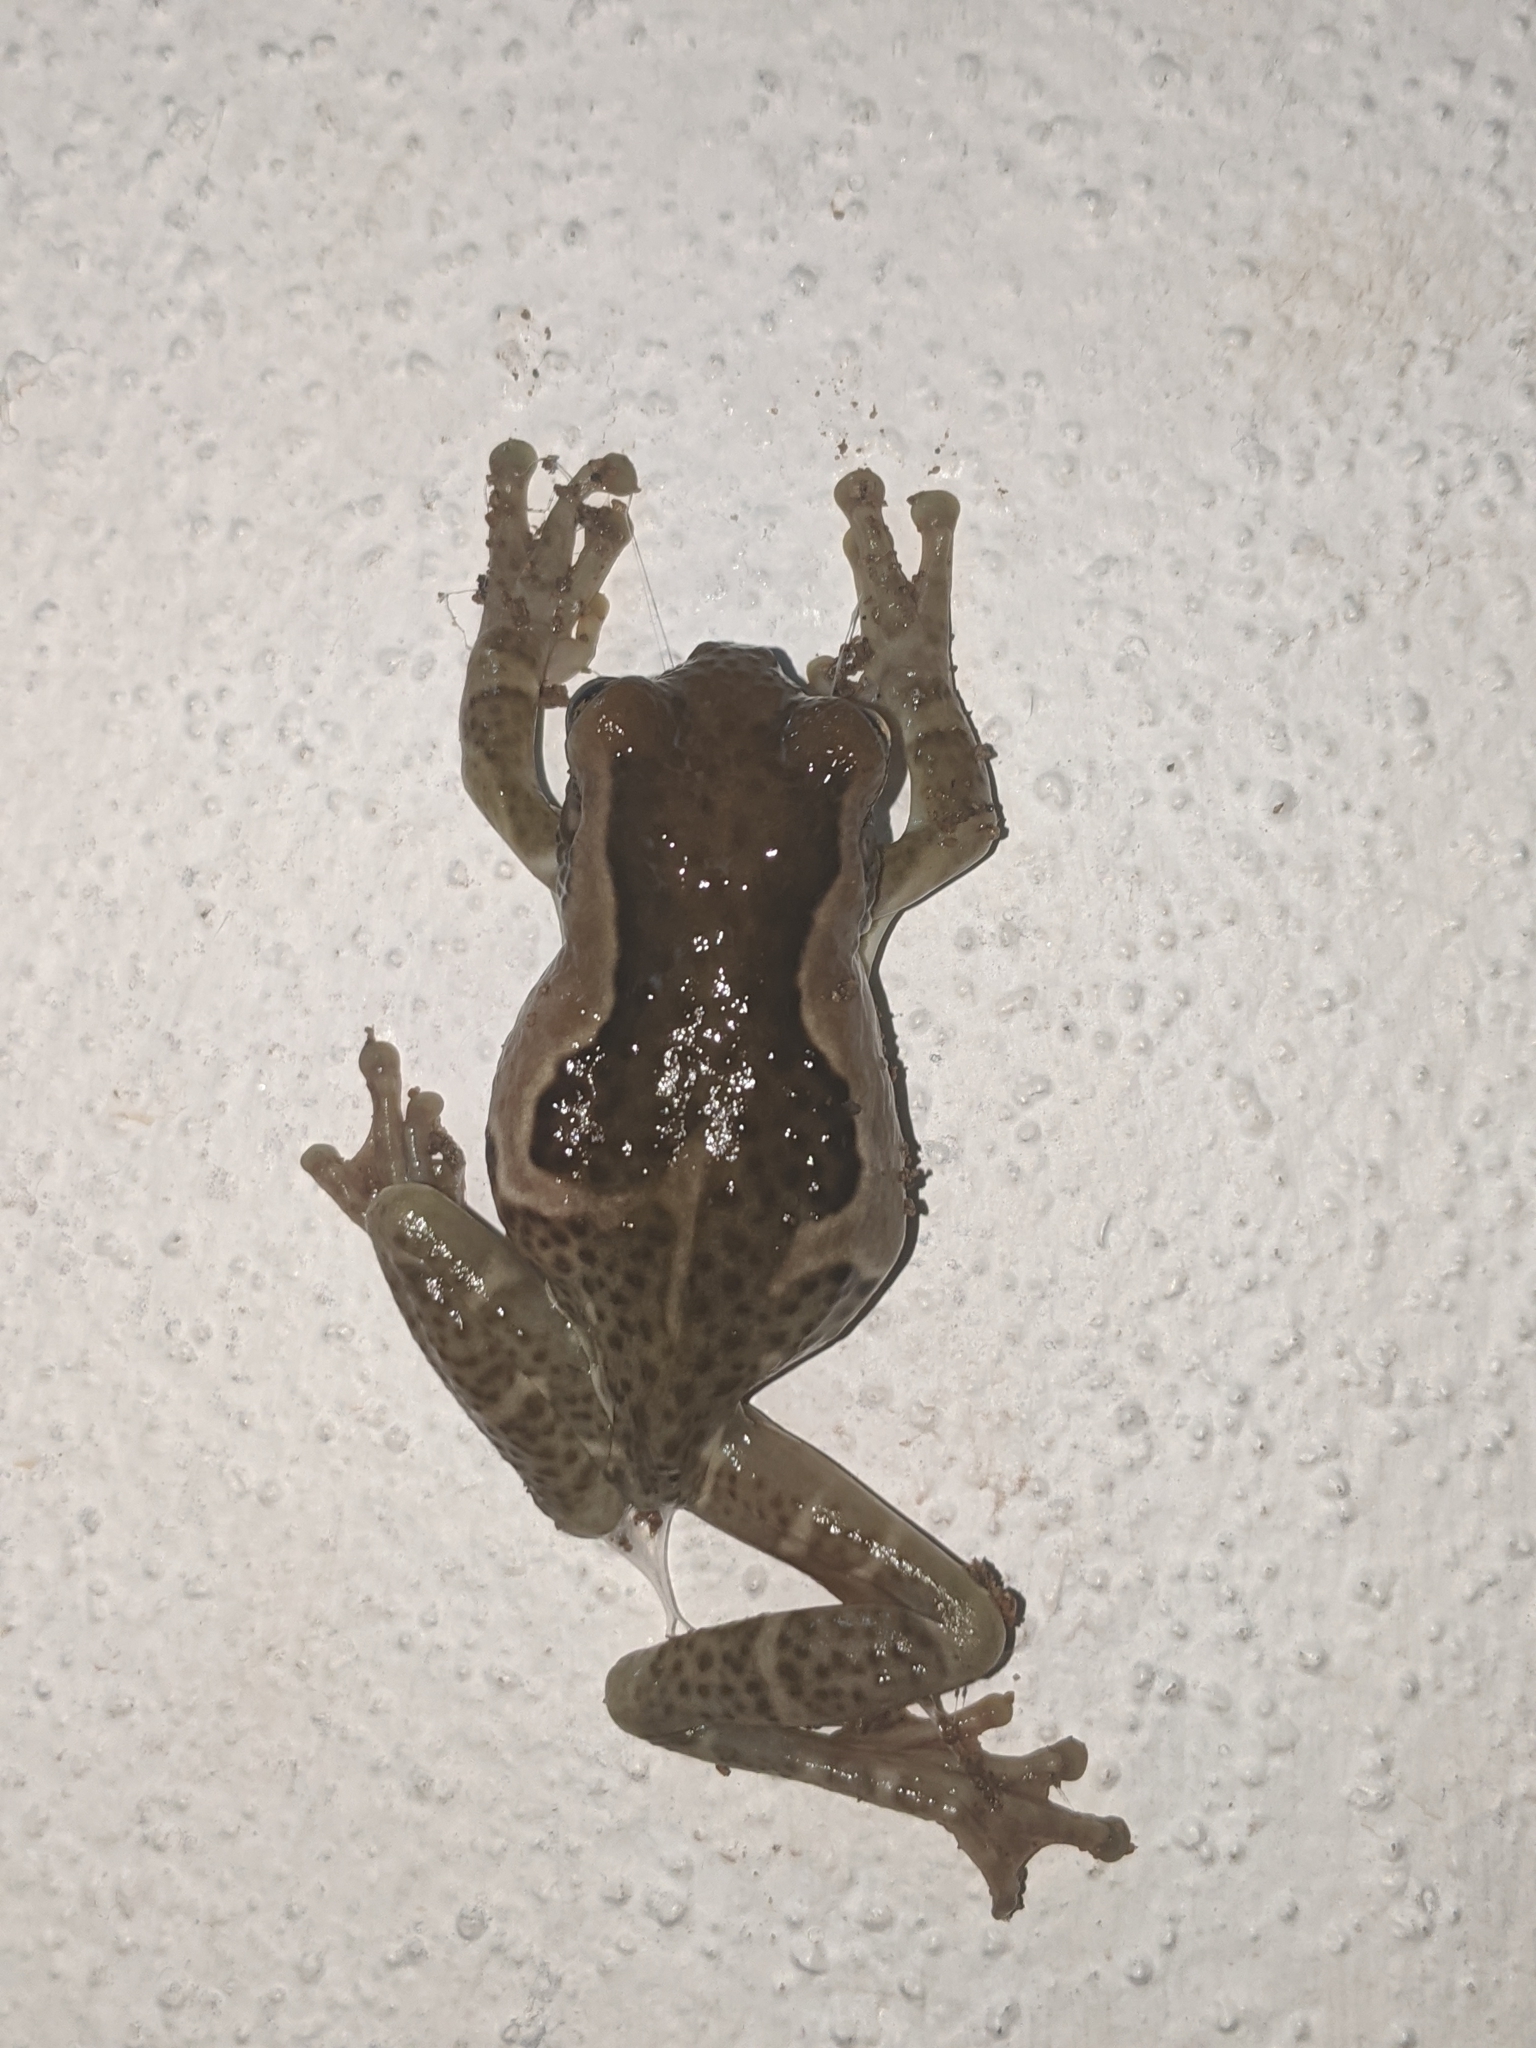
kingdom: Animalia
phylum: Chordata
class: Amphibia
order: Anura
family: Hylidae
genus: Trachycephalus
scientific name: Trachycephalus vermiculatus
